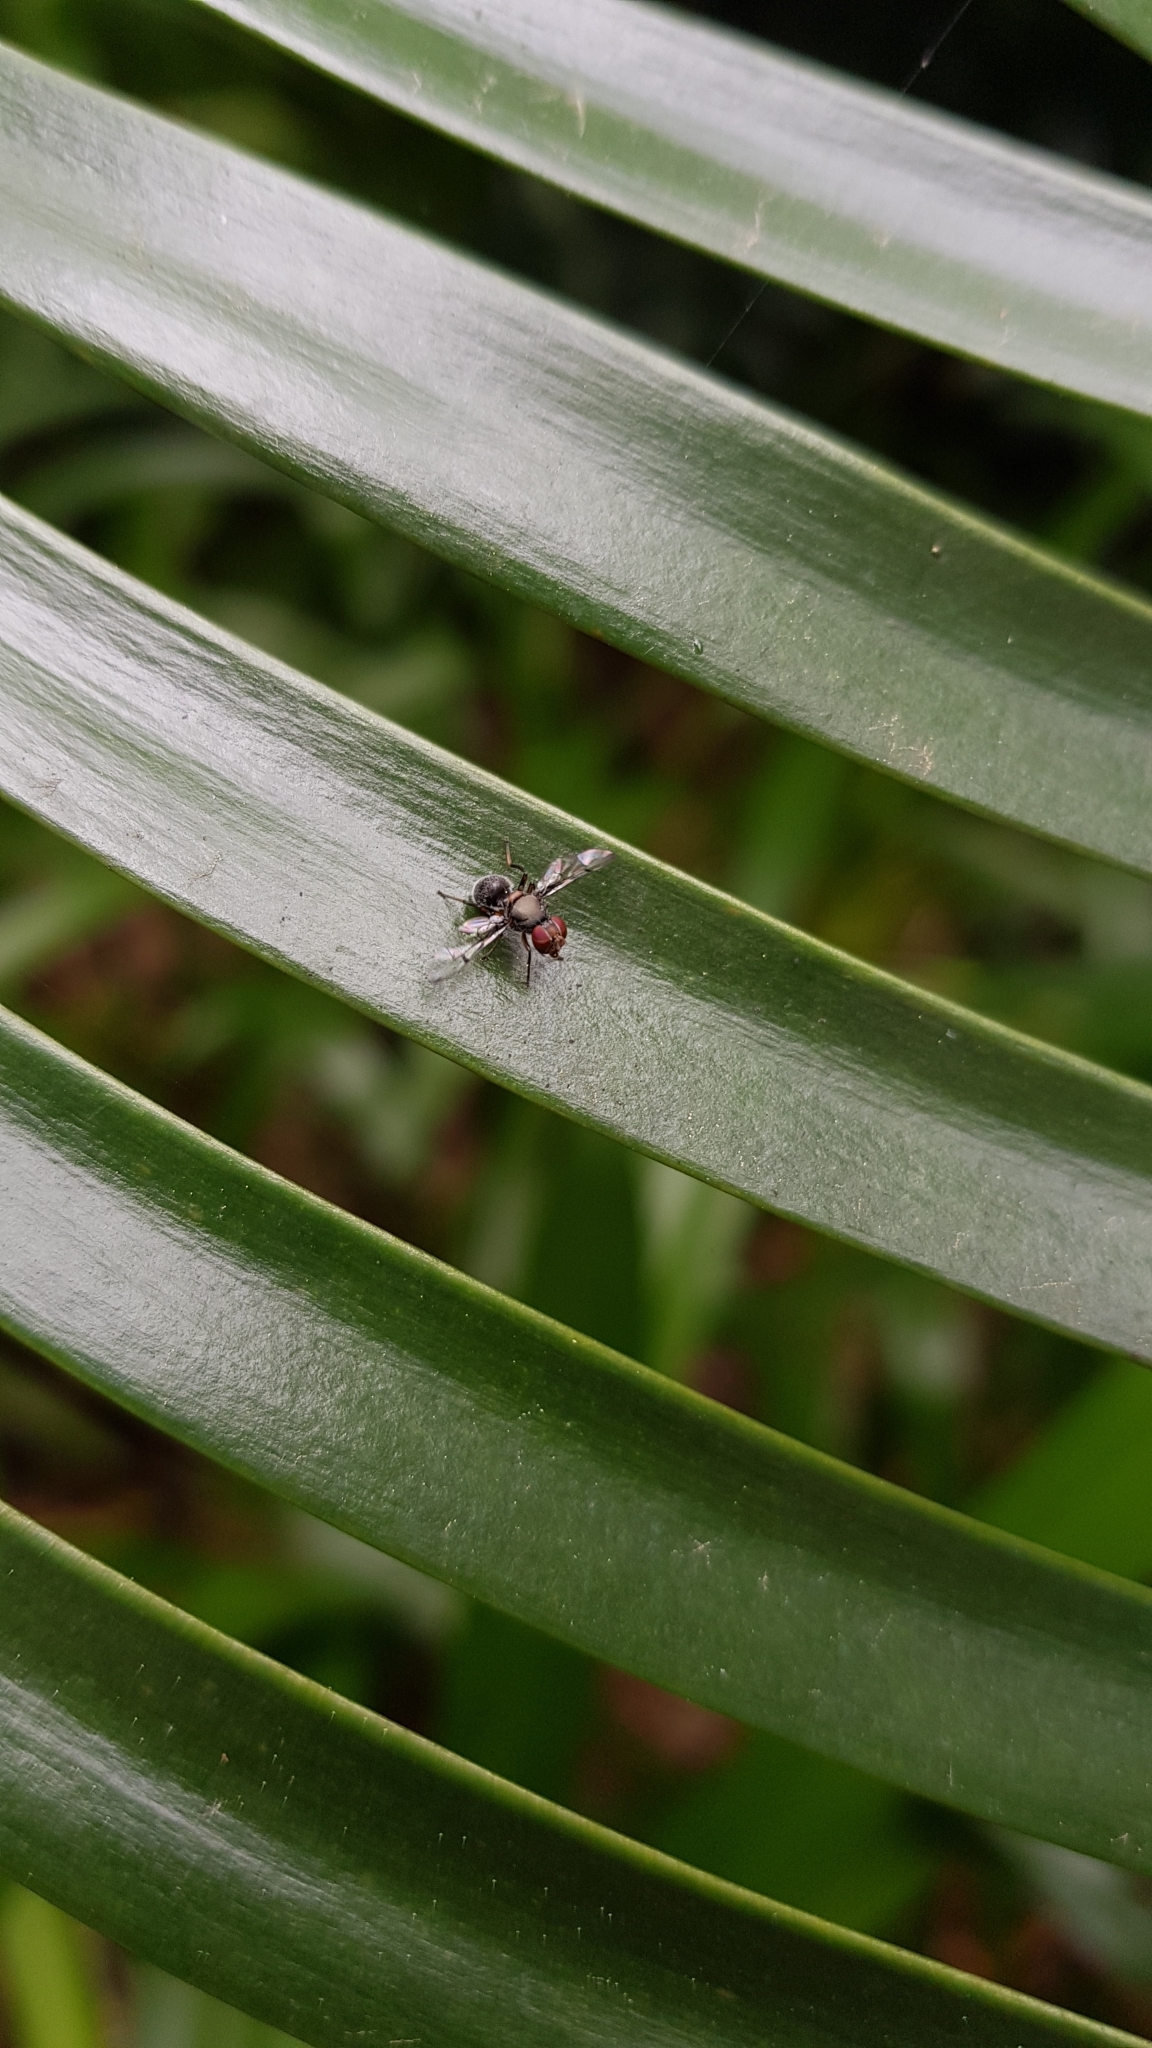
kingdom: Animalia
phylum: Arthropoda
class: Insecta
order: Diptera
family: Platystomatidae
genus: Pogonortalis
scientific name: Pogonortalis doclea
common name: Boatman fly
